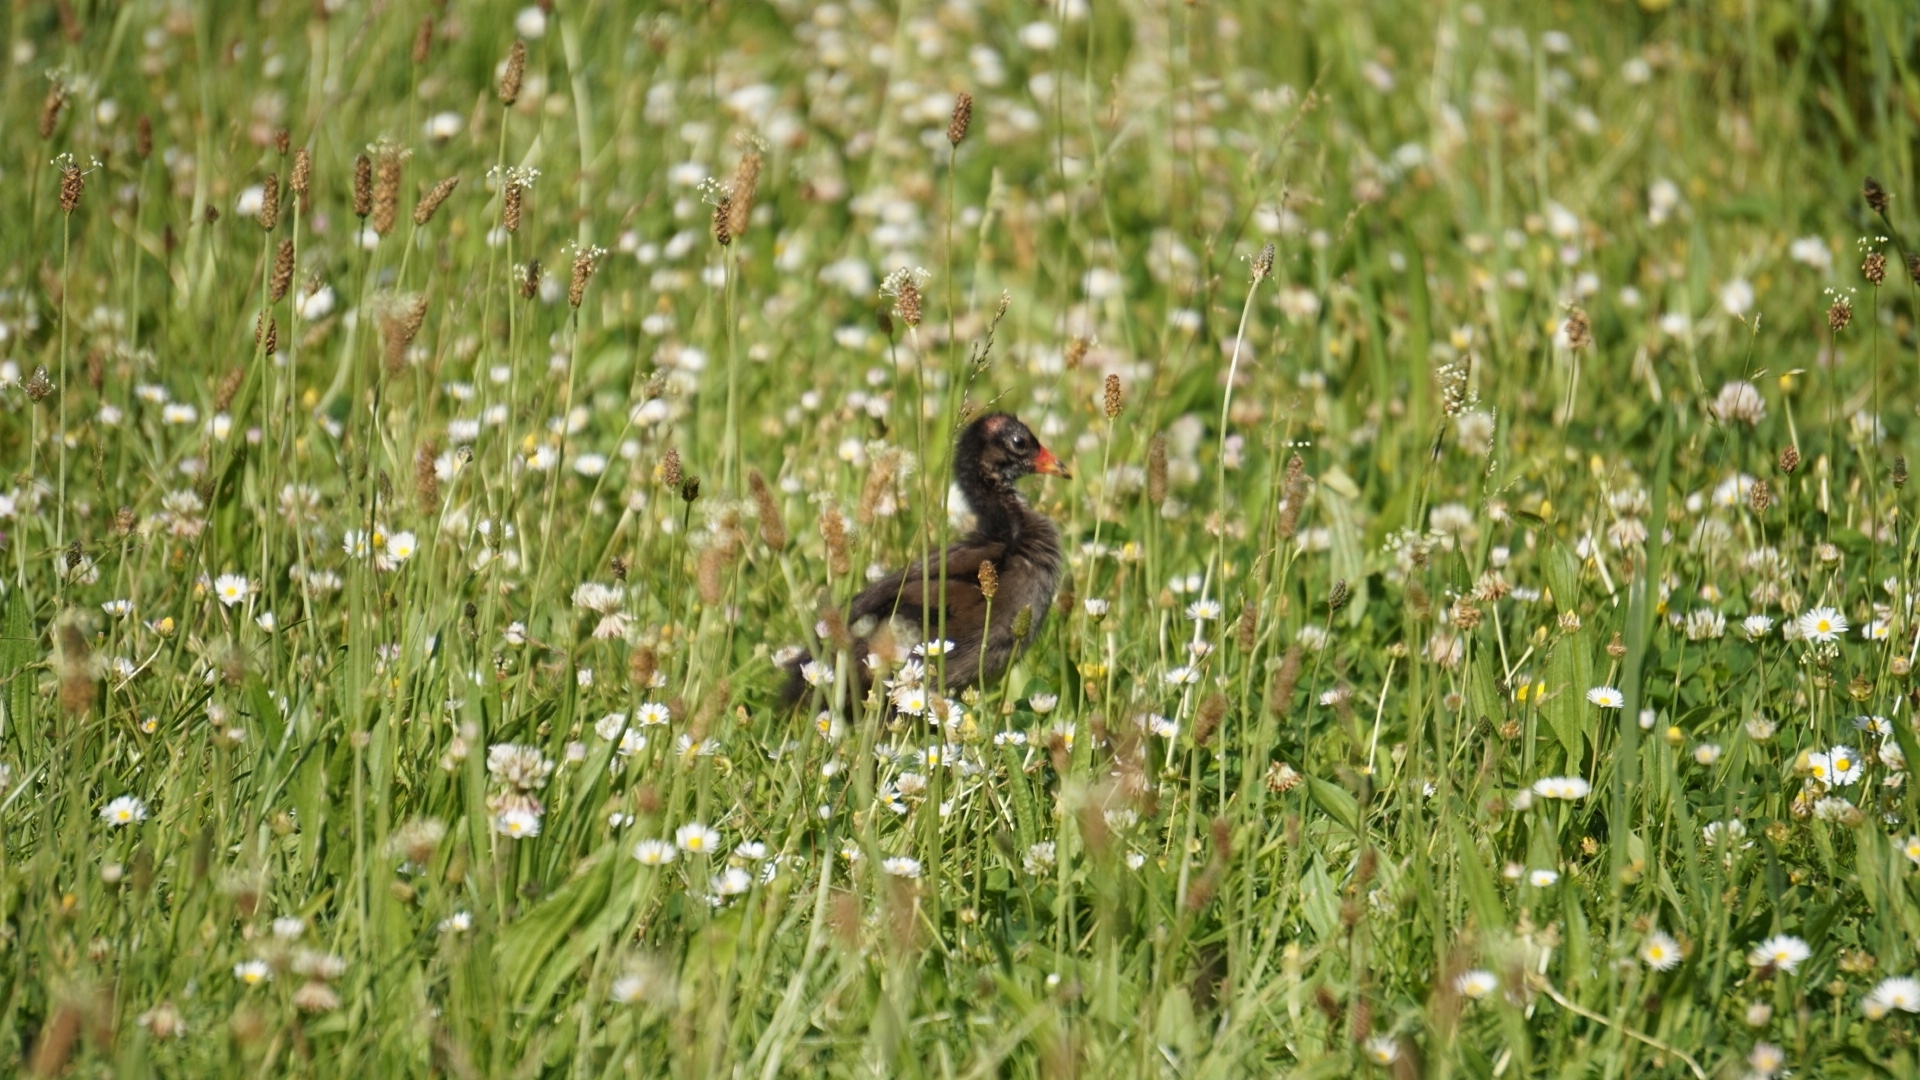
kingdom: Animalia
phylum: Chordata
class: Aves
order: Gruiformes
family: Rallidae
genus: Gallinula
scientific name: Gallinula chloropus
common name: Common moorhen
